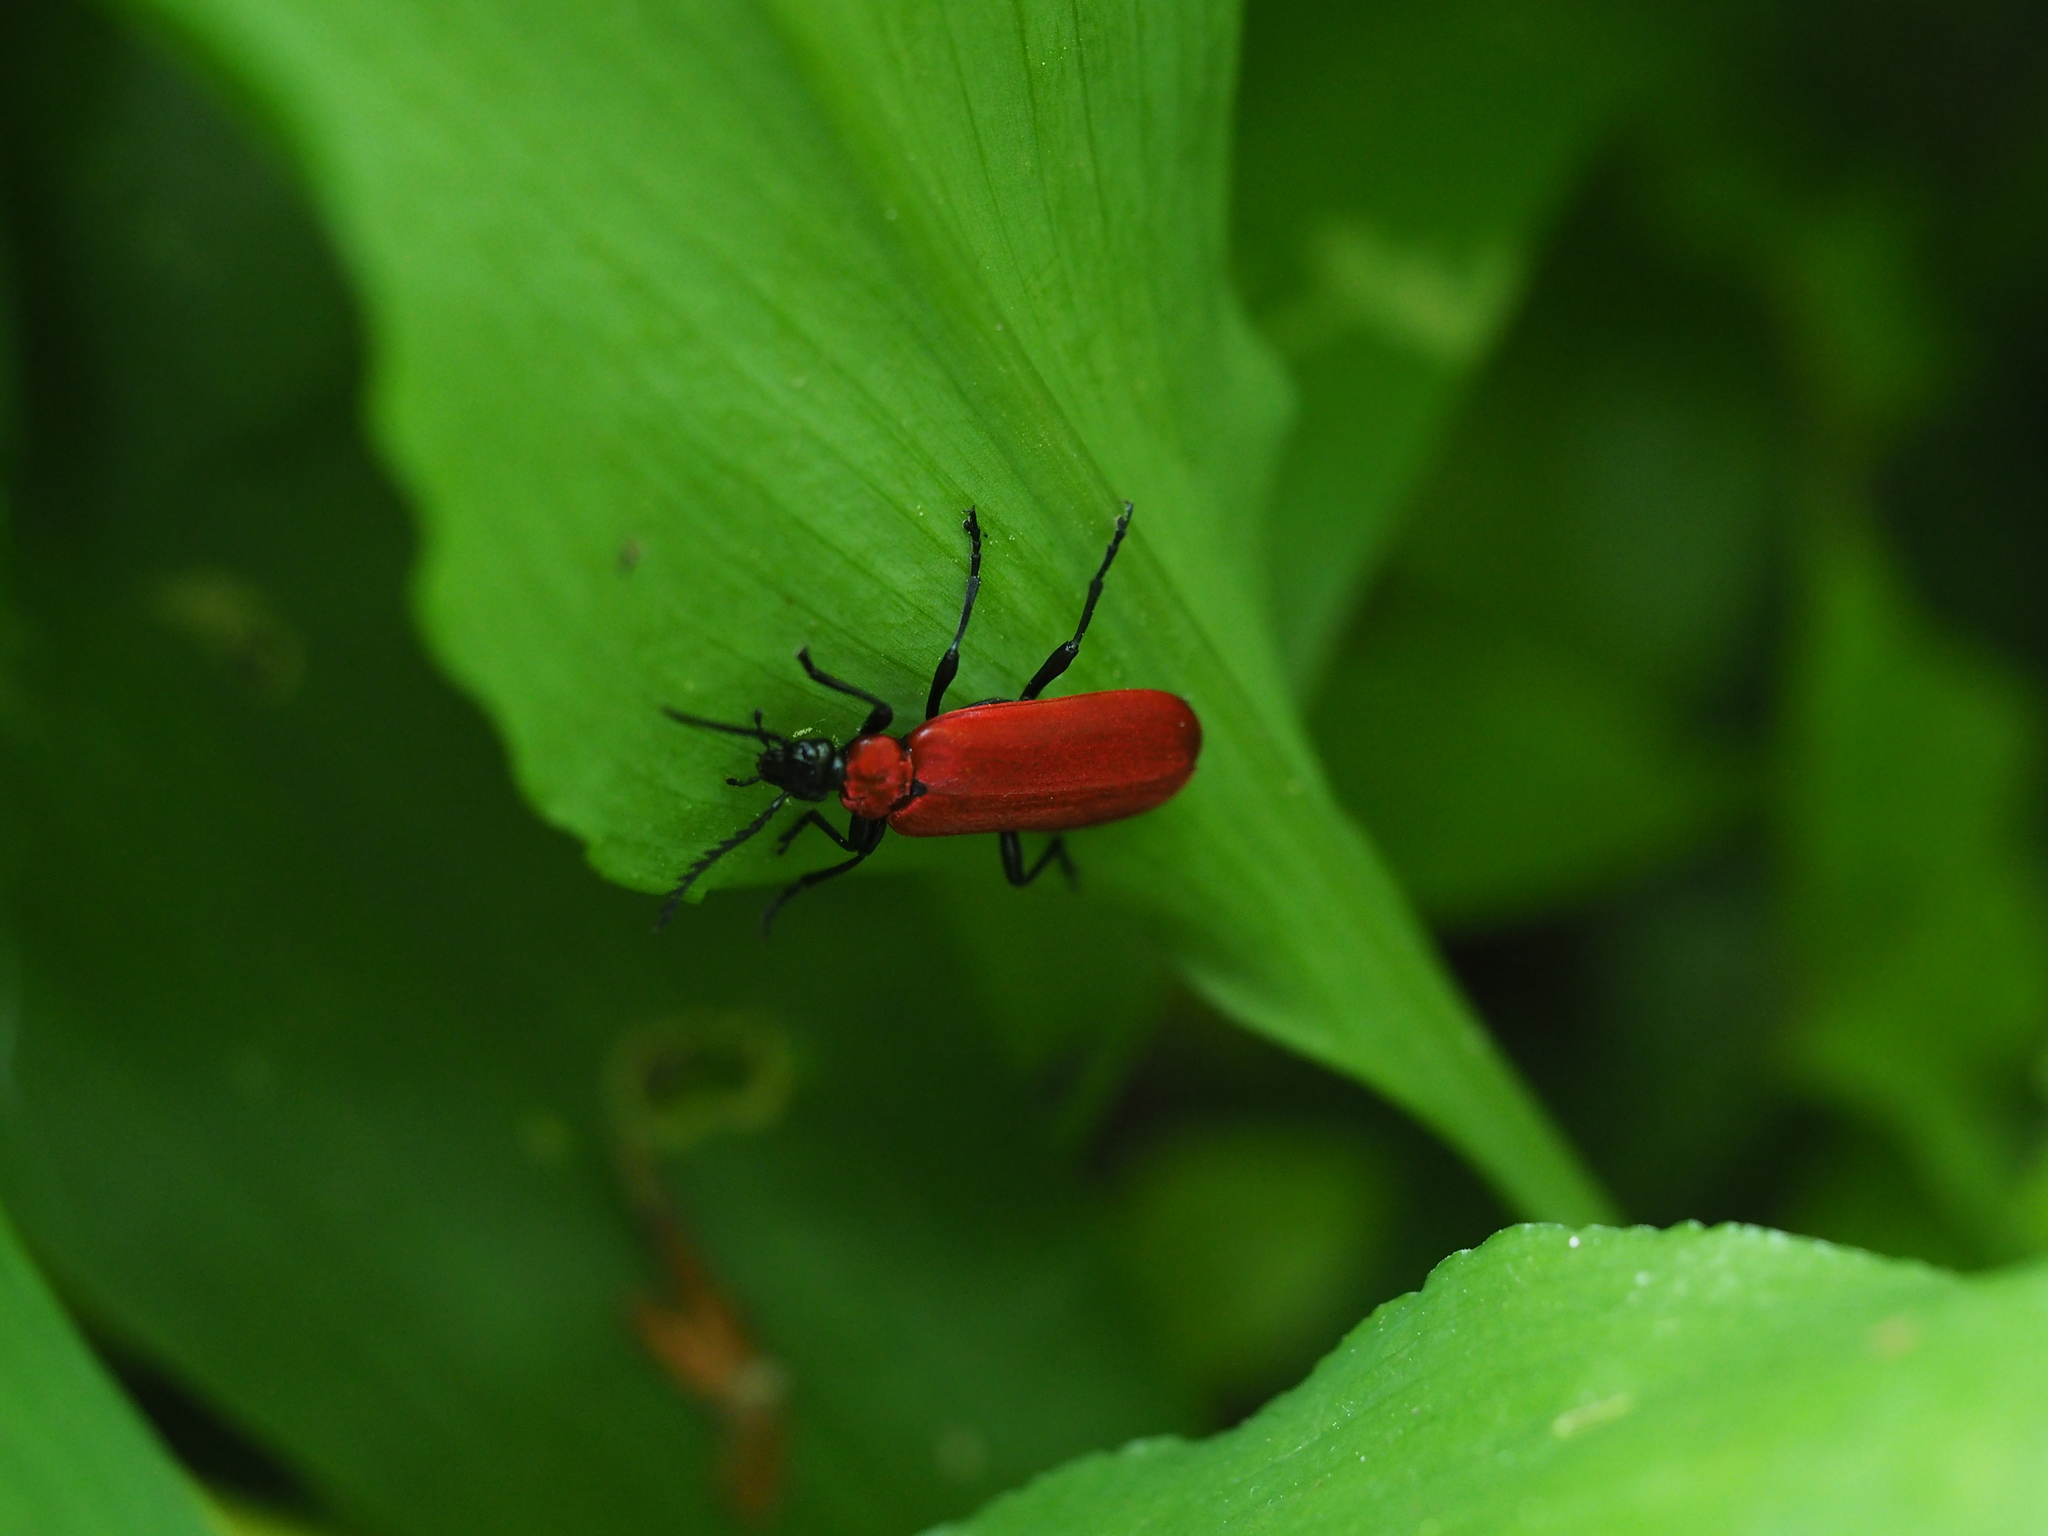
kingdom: Animalia
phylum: Arthropoda
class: Insecta
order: Coleoptera
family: Pyrochroidae
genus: Pyrochroa
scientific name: Pyrochroa coccinea
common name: Black-headed cardinal beetle
